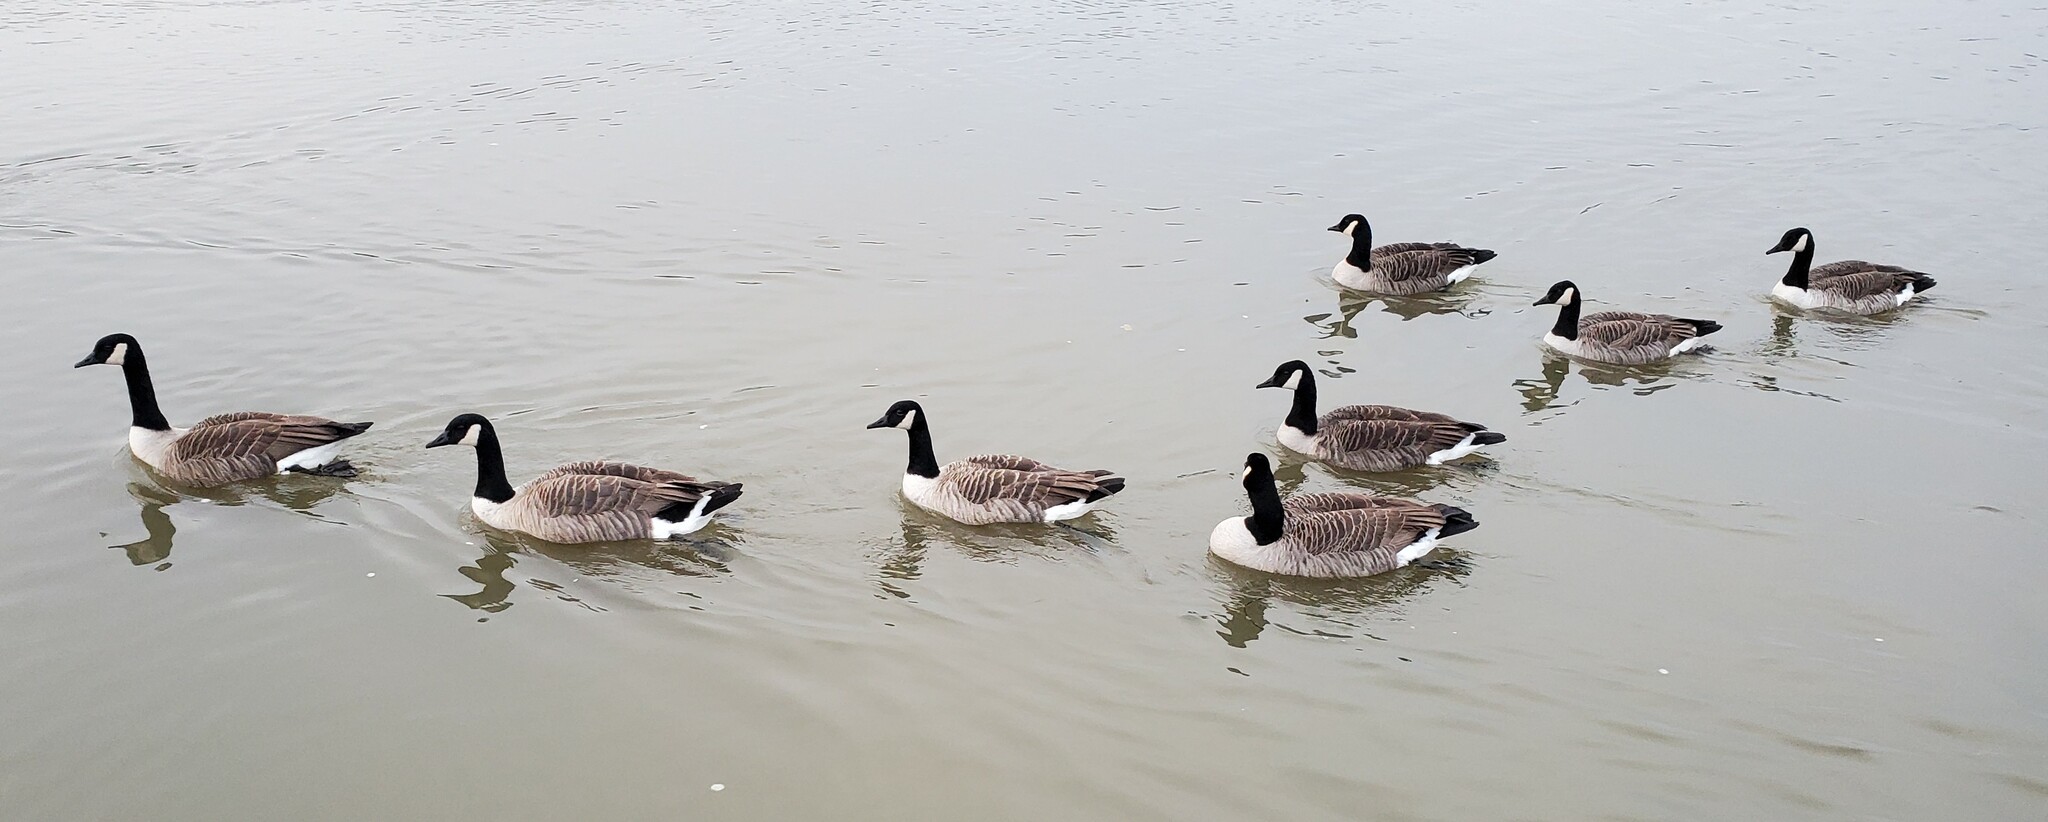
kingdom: Animalia
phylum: Chordata
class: Aves
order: Anseriformes
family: Anatidae
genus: Branta
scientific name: Branta canadensis
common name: Canada goose
